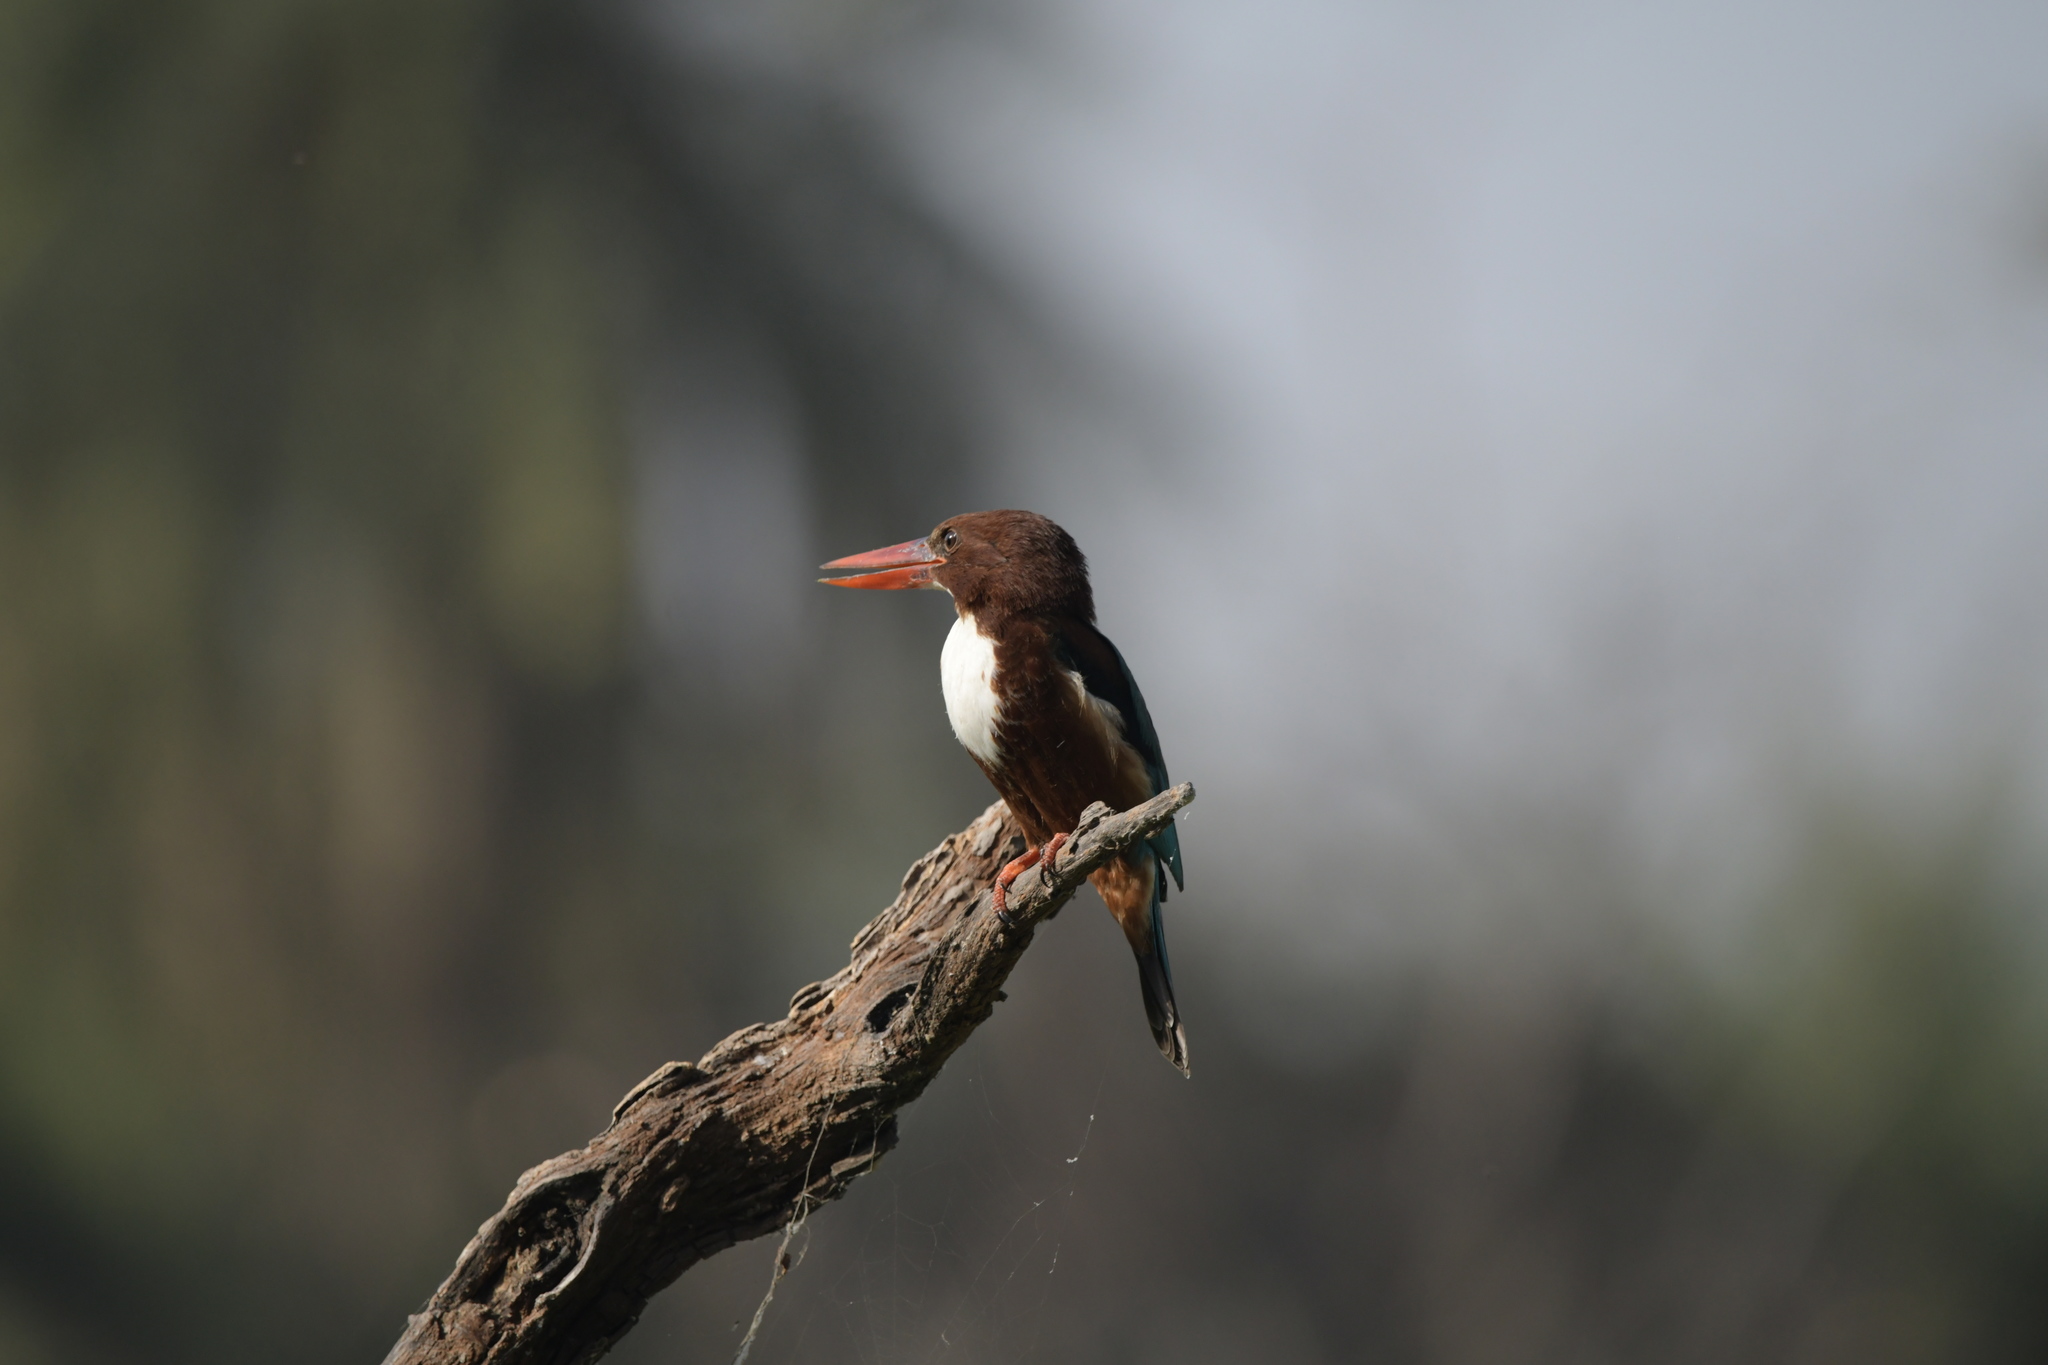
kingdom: Animalia
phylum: Chordata
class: Aves
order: Coraciiformes
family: Alcedinidae
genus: Halcyon
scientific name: Halcyon smyrnensis
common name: White-throated kingfisher
